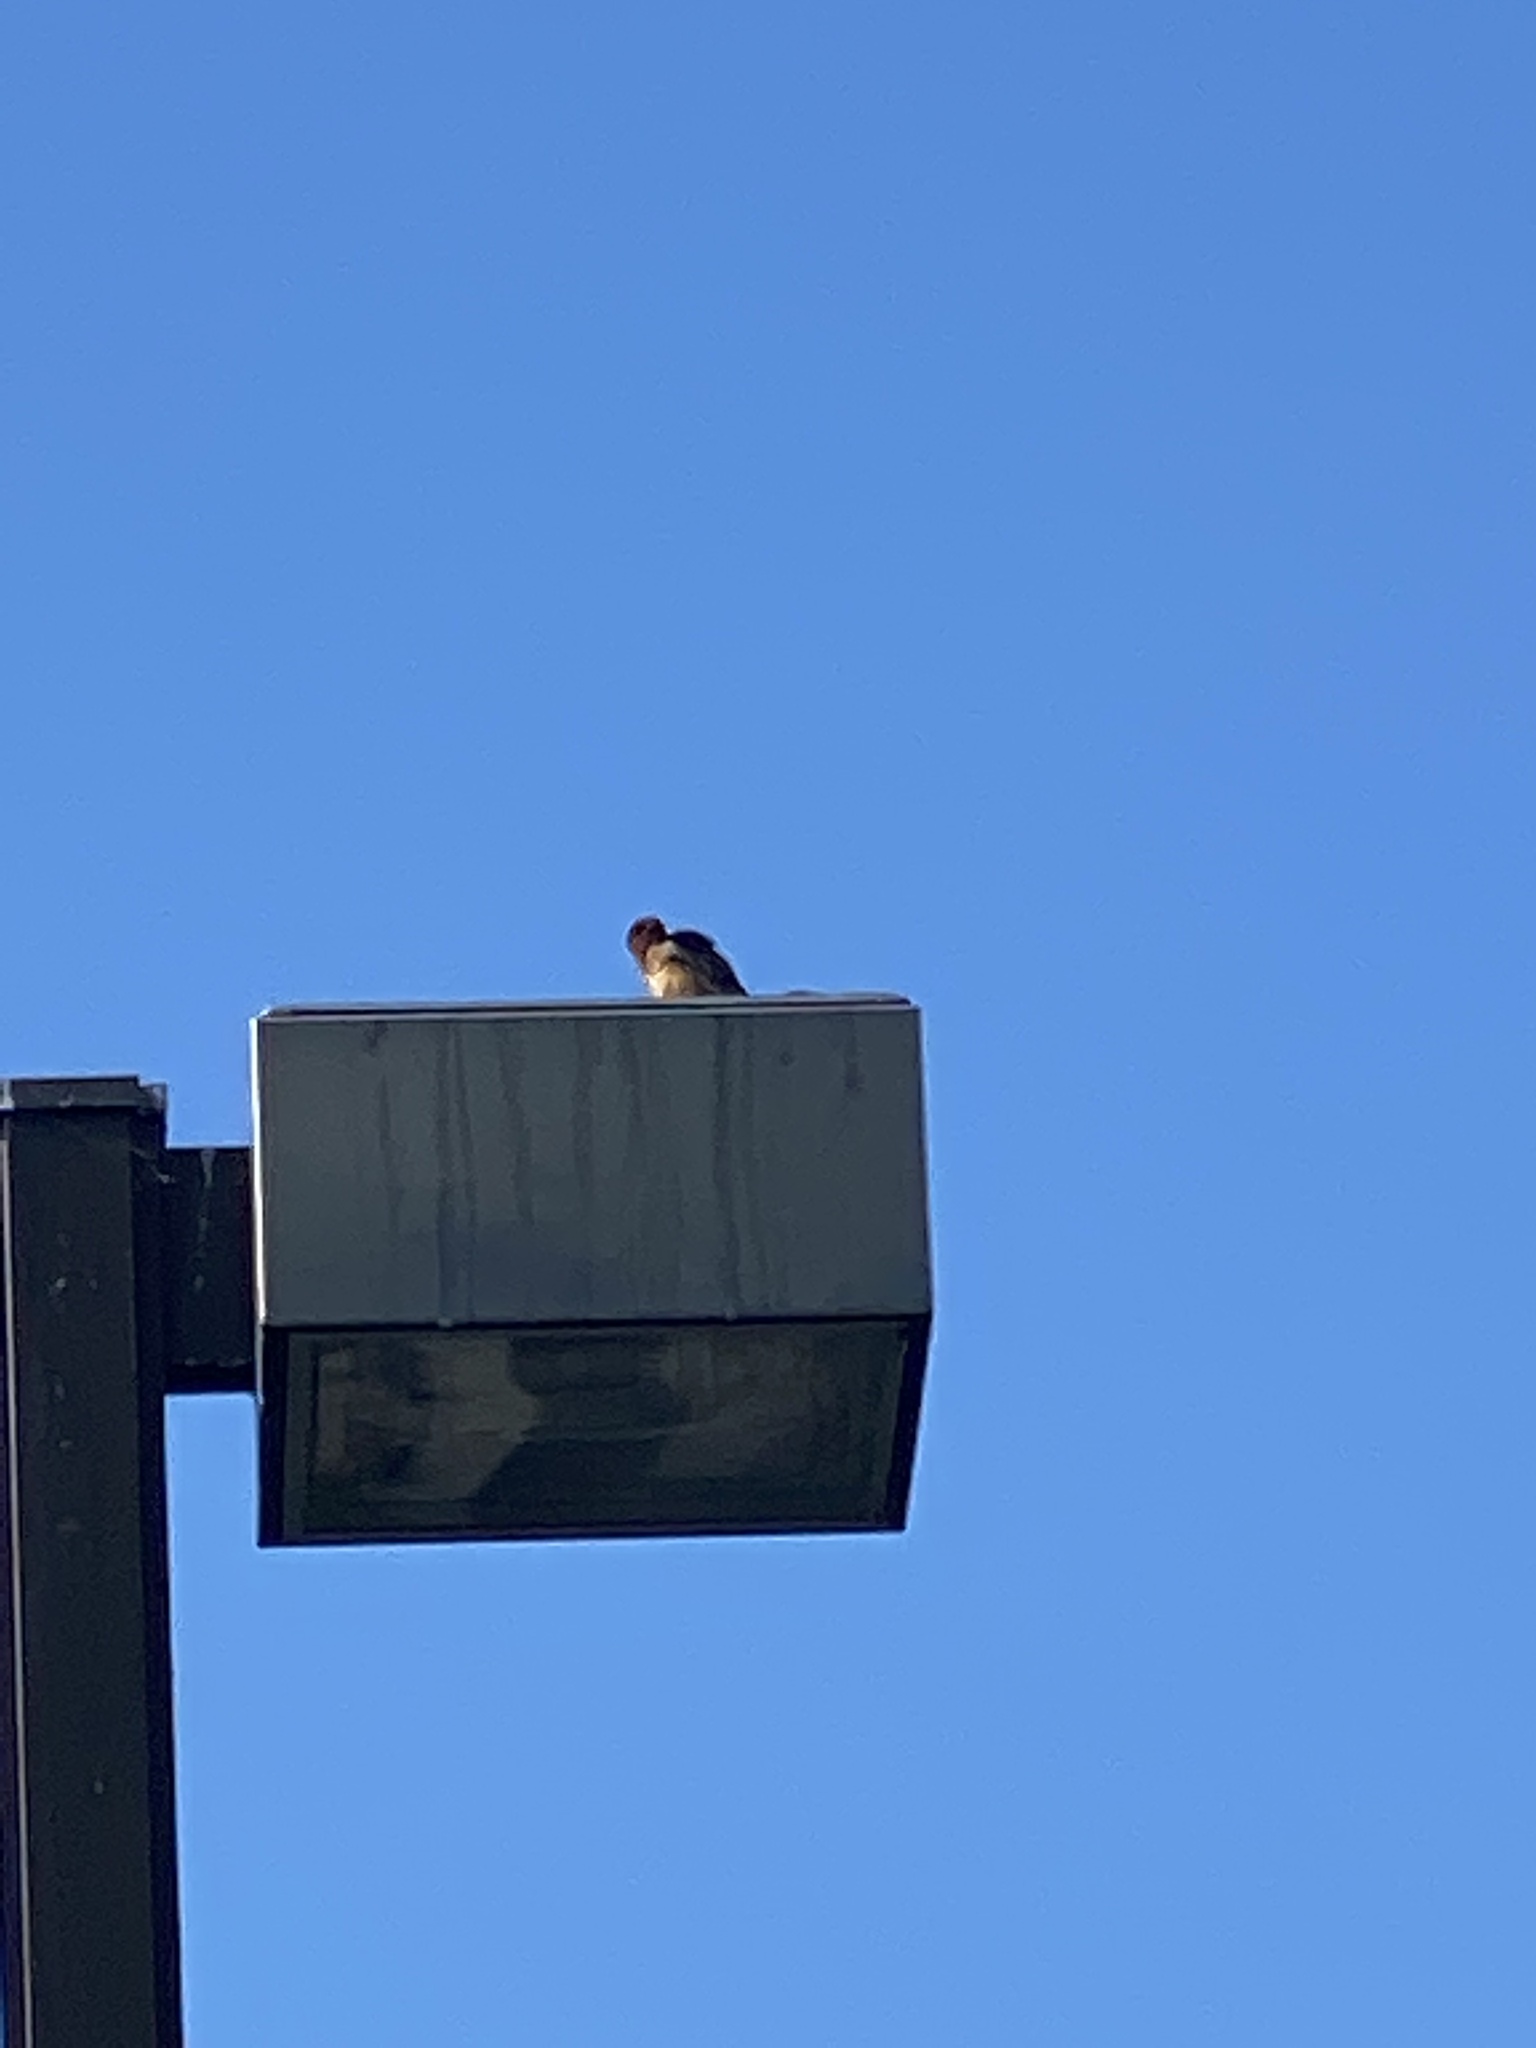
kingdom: Animalia
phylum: Chordata
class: Aves
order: Passeriformes
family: Hirundinidae
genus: Hirundo
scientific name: Hirundo rustica
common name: Barn swallow
